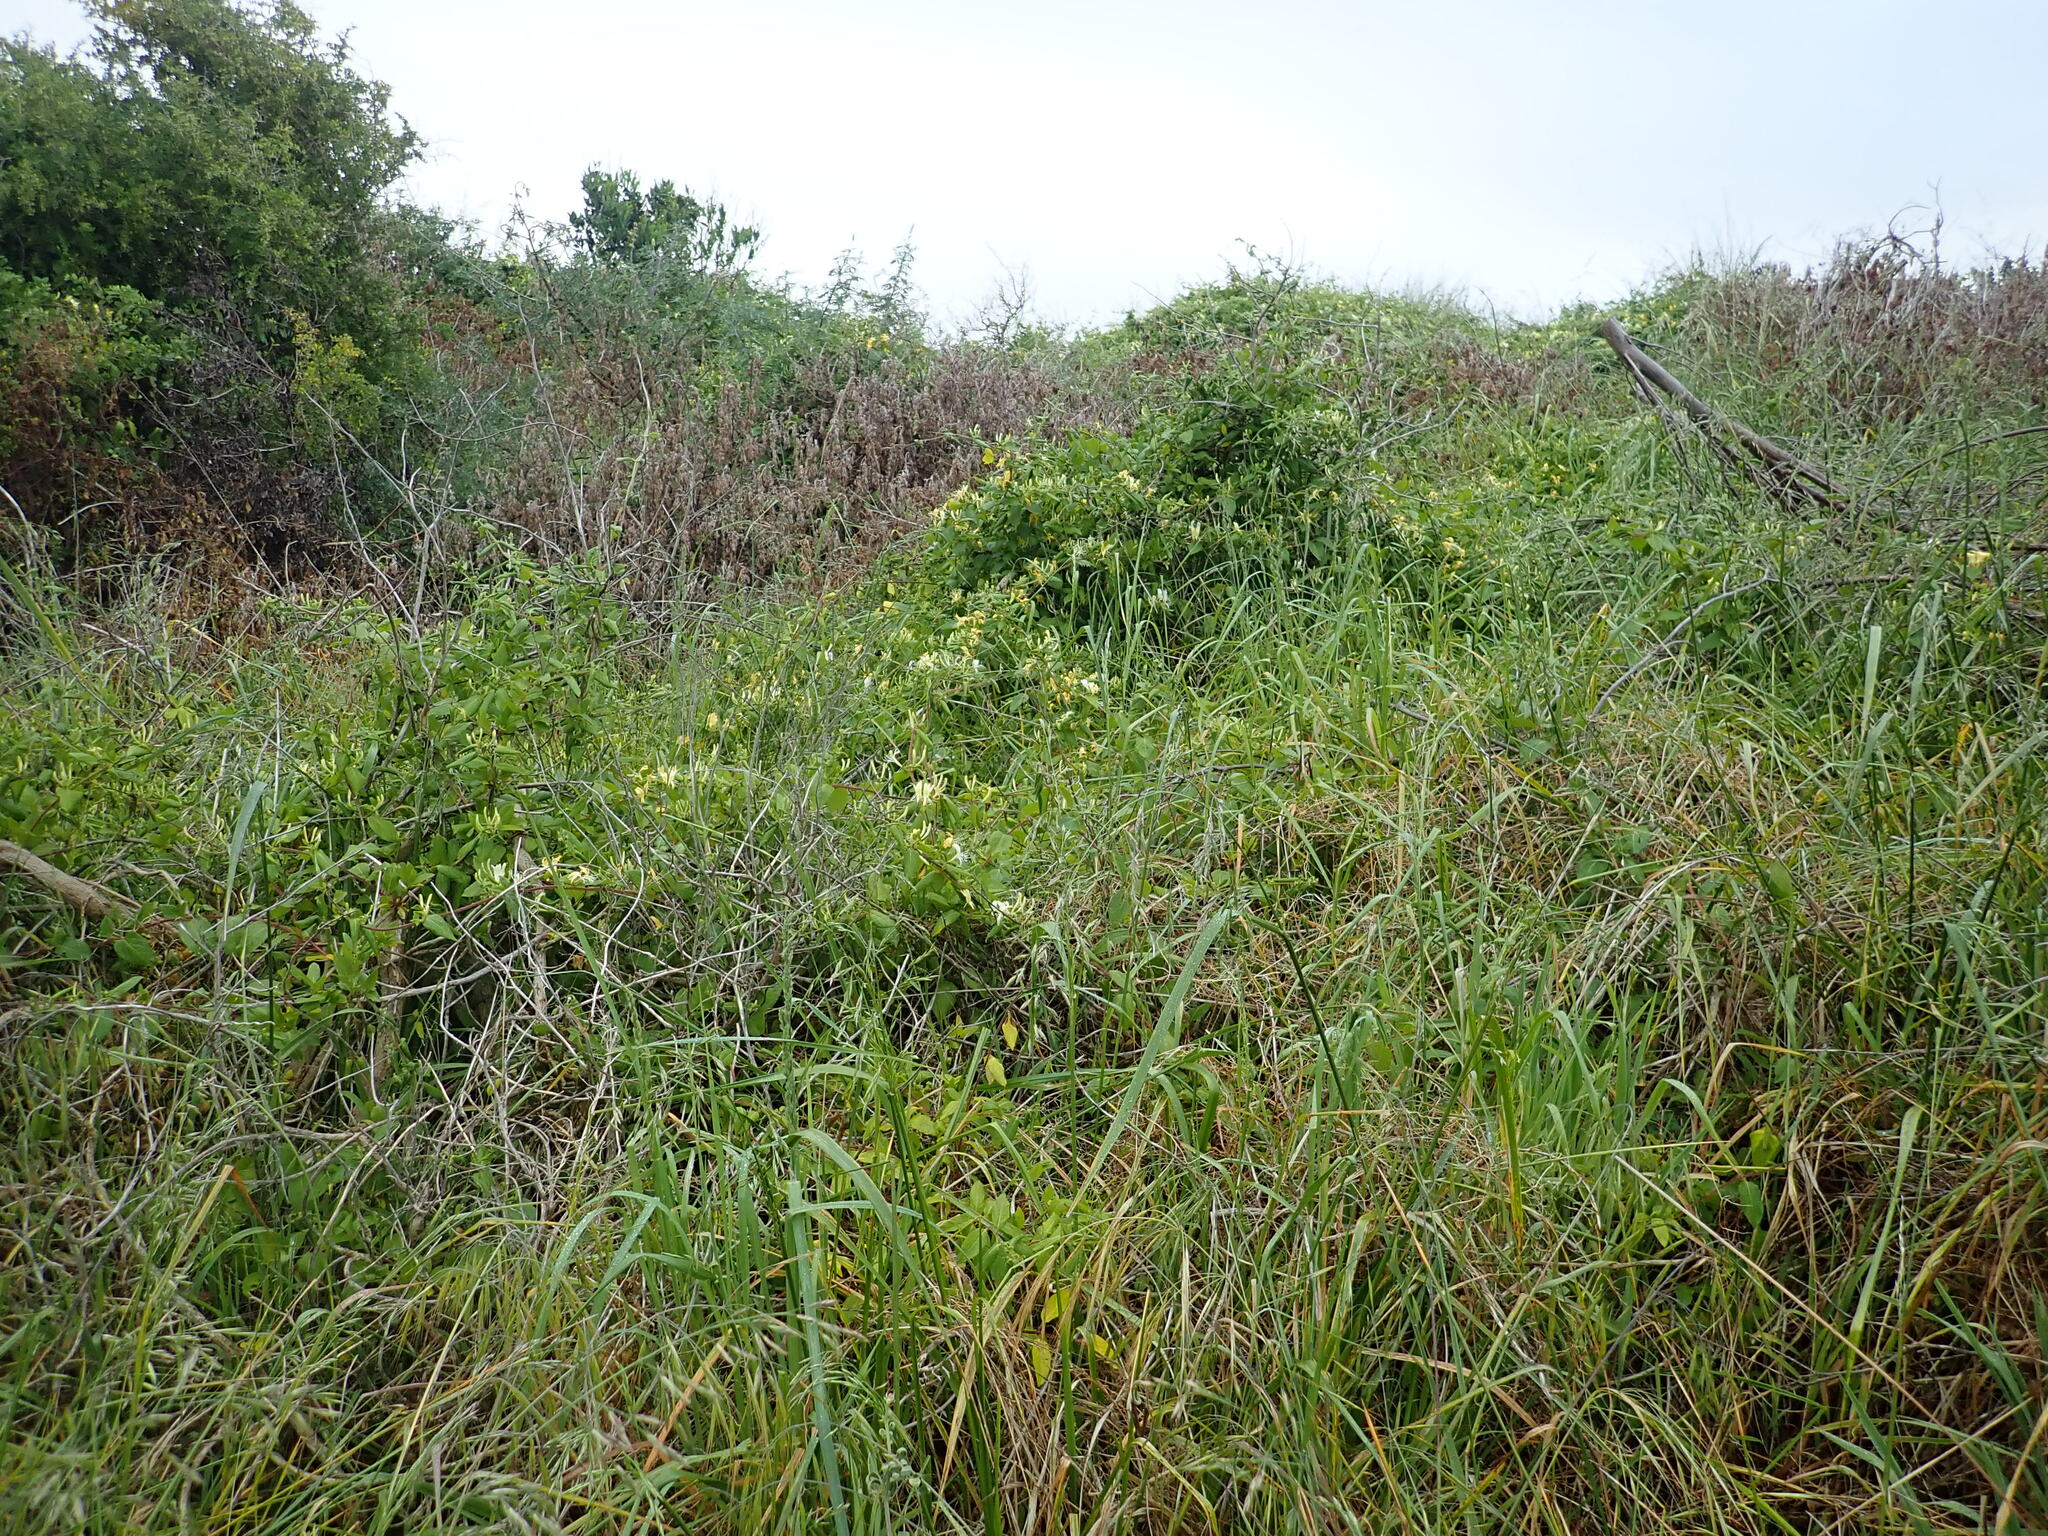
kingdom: Plantae
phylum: Tracheophyta
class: Magnoliopsida
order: Dipsacales
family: Caprifoliaceae
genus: Lonicera
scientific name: Lonicera japonica
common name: Japanese honeysuckle
